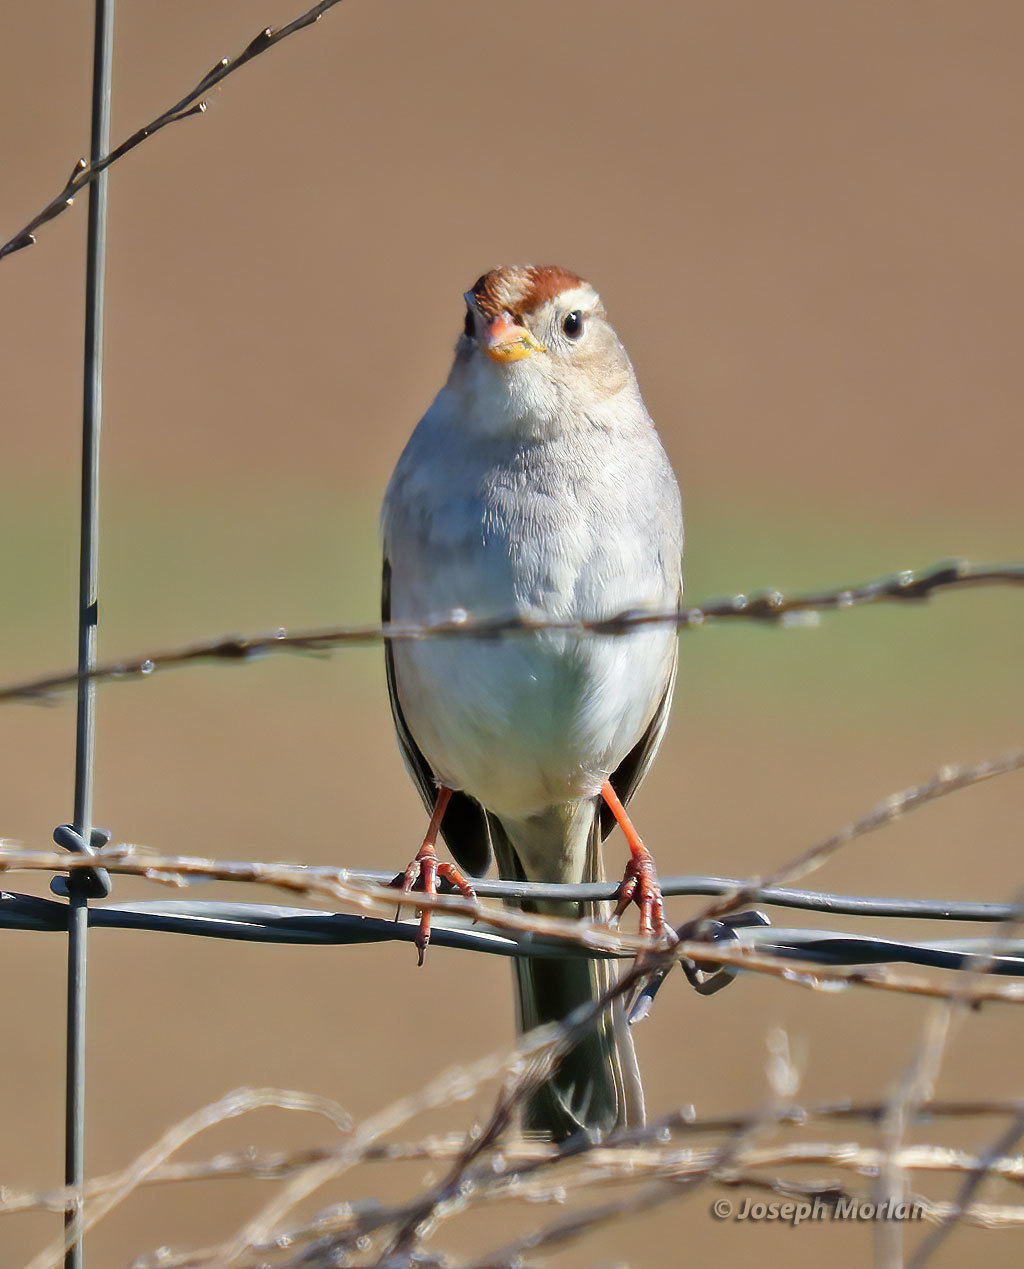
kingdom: Animalia
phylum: Chordata
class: Aves
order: Passeriformes
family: Passerellidae
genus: Zonotrichia
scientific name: Zonotrichia leucophrys
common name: White-crowned sparrow
